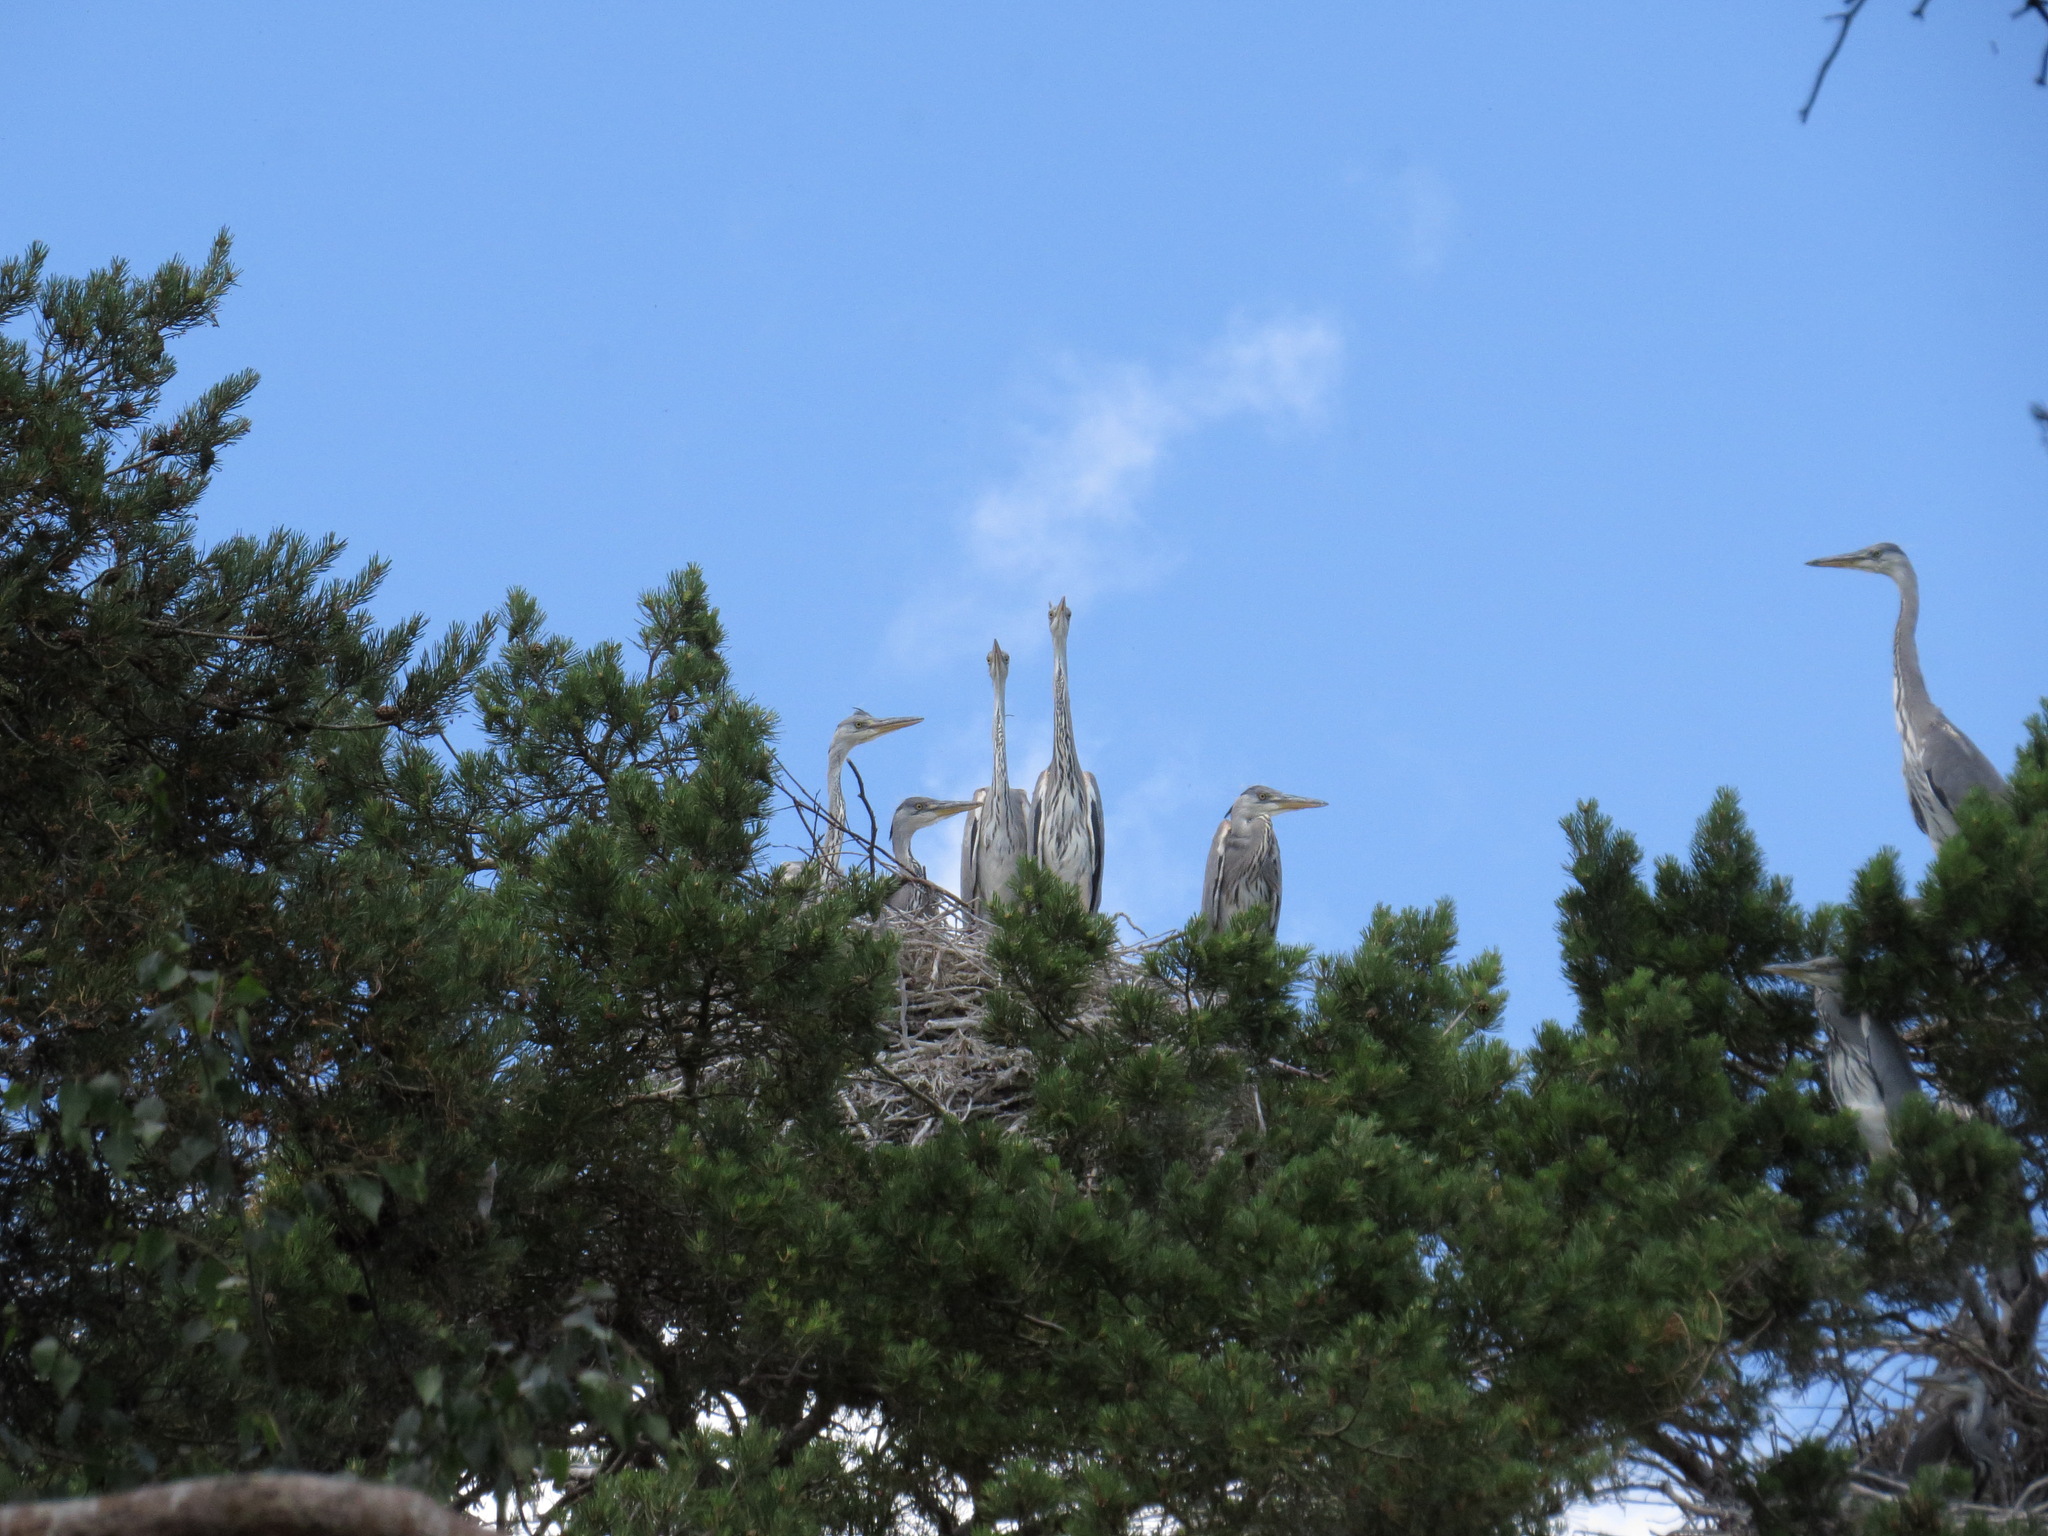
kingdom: Animalia
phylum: Chordata
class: Aves
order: Pelecaniformes
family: Ardeidae
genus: Ardea
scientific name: Ardea cinerea
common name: Grey heron
